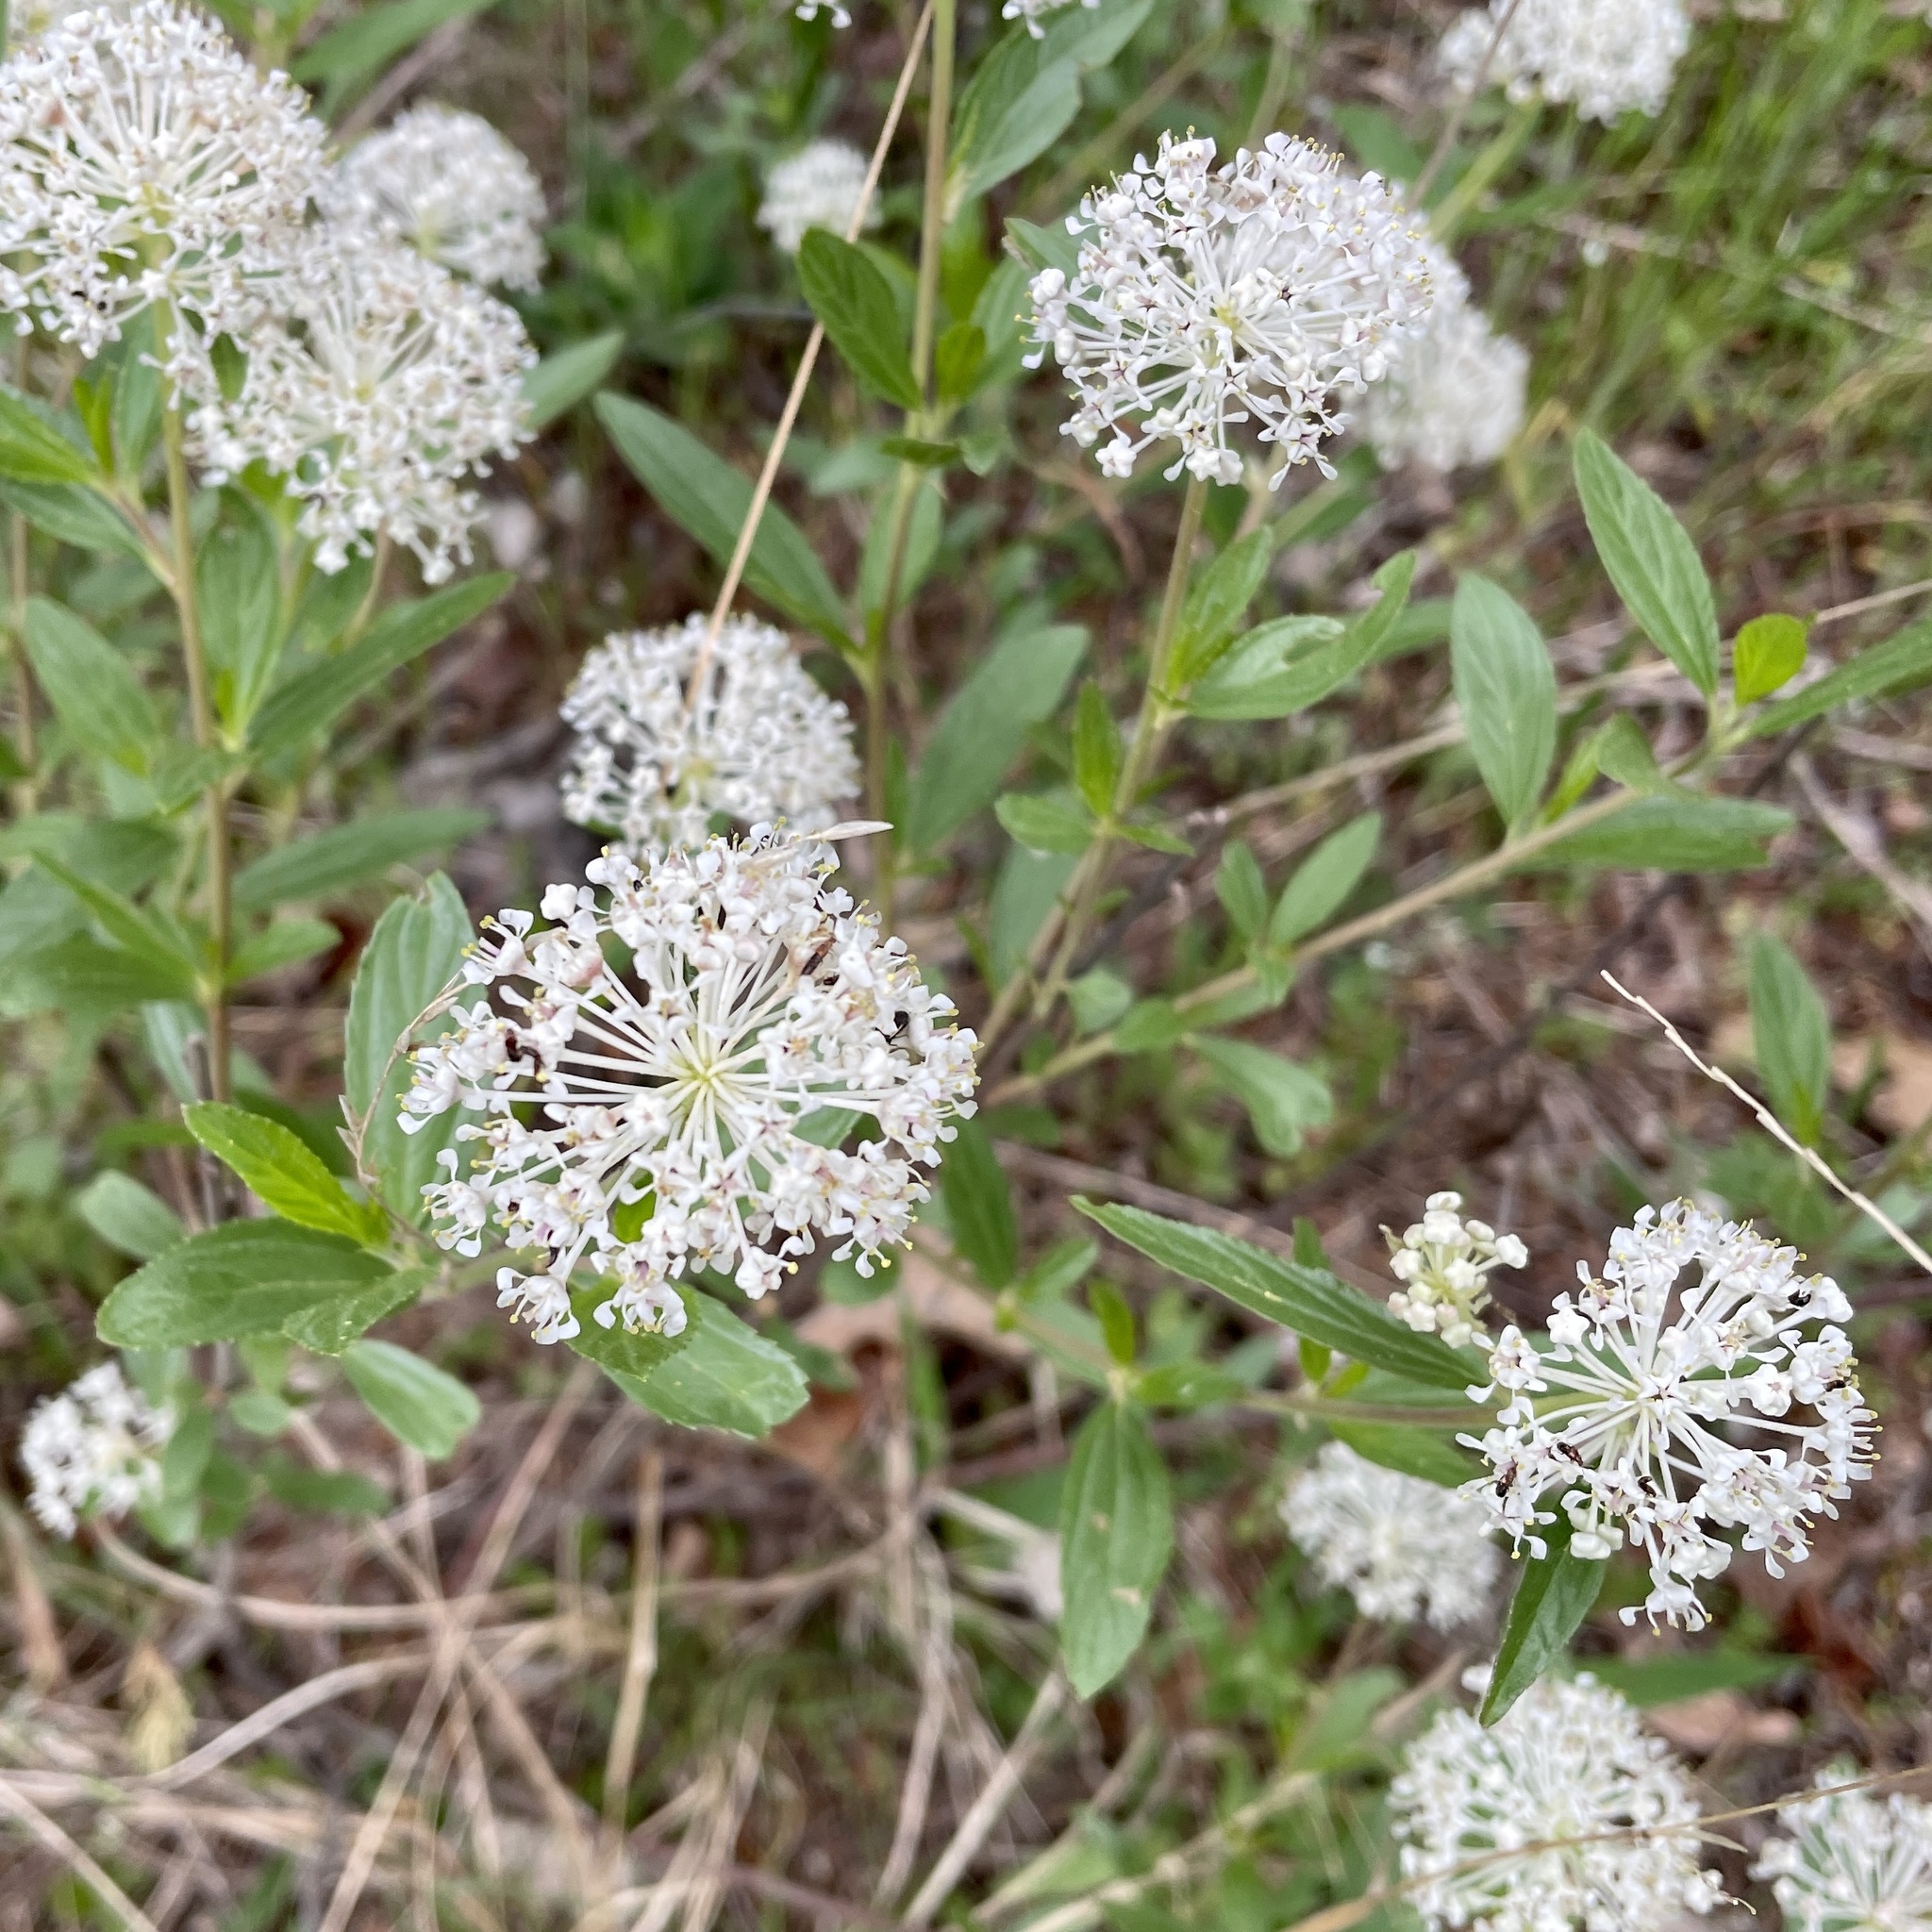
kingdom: Plantae
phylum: Tracheophyta
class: Magnoliopsida
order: Rosales
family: Rhamnaceae
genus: Ceanothus
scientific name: Ceanothus herbaceus
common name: Inland ceanothus
